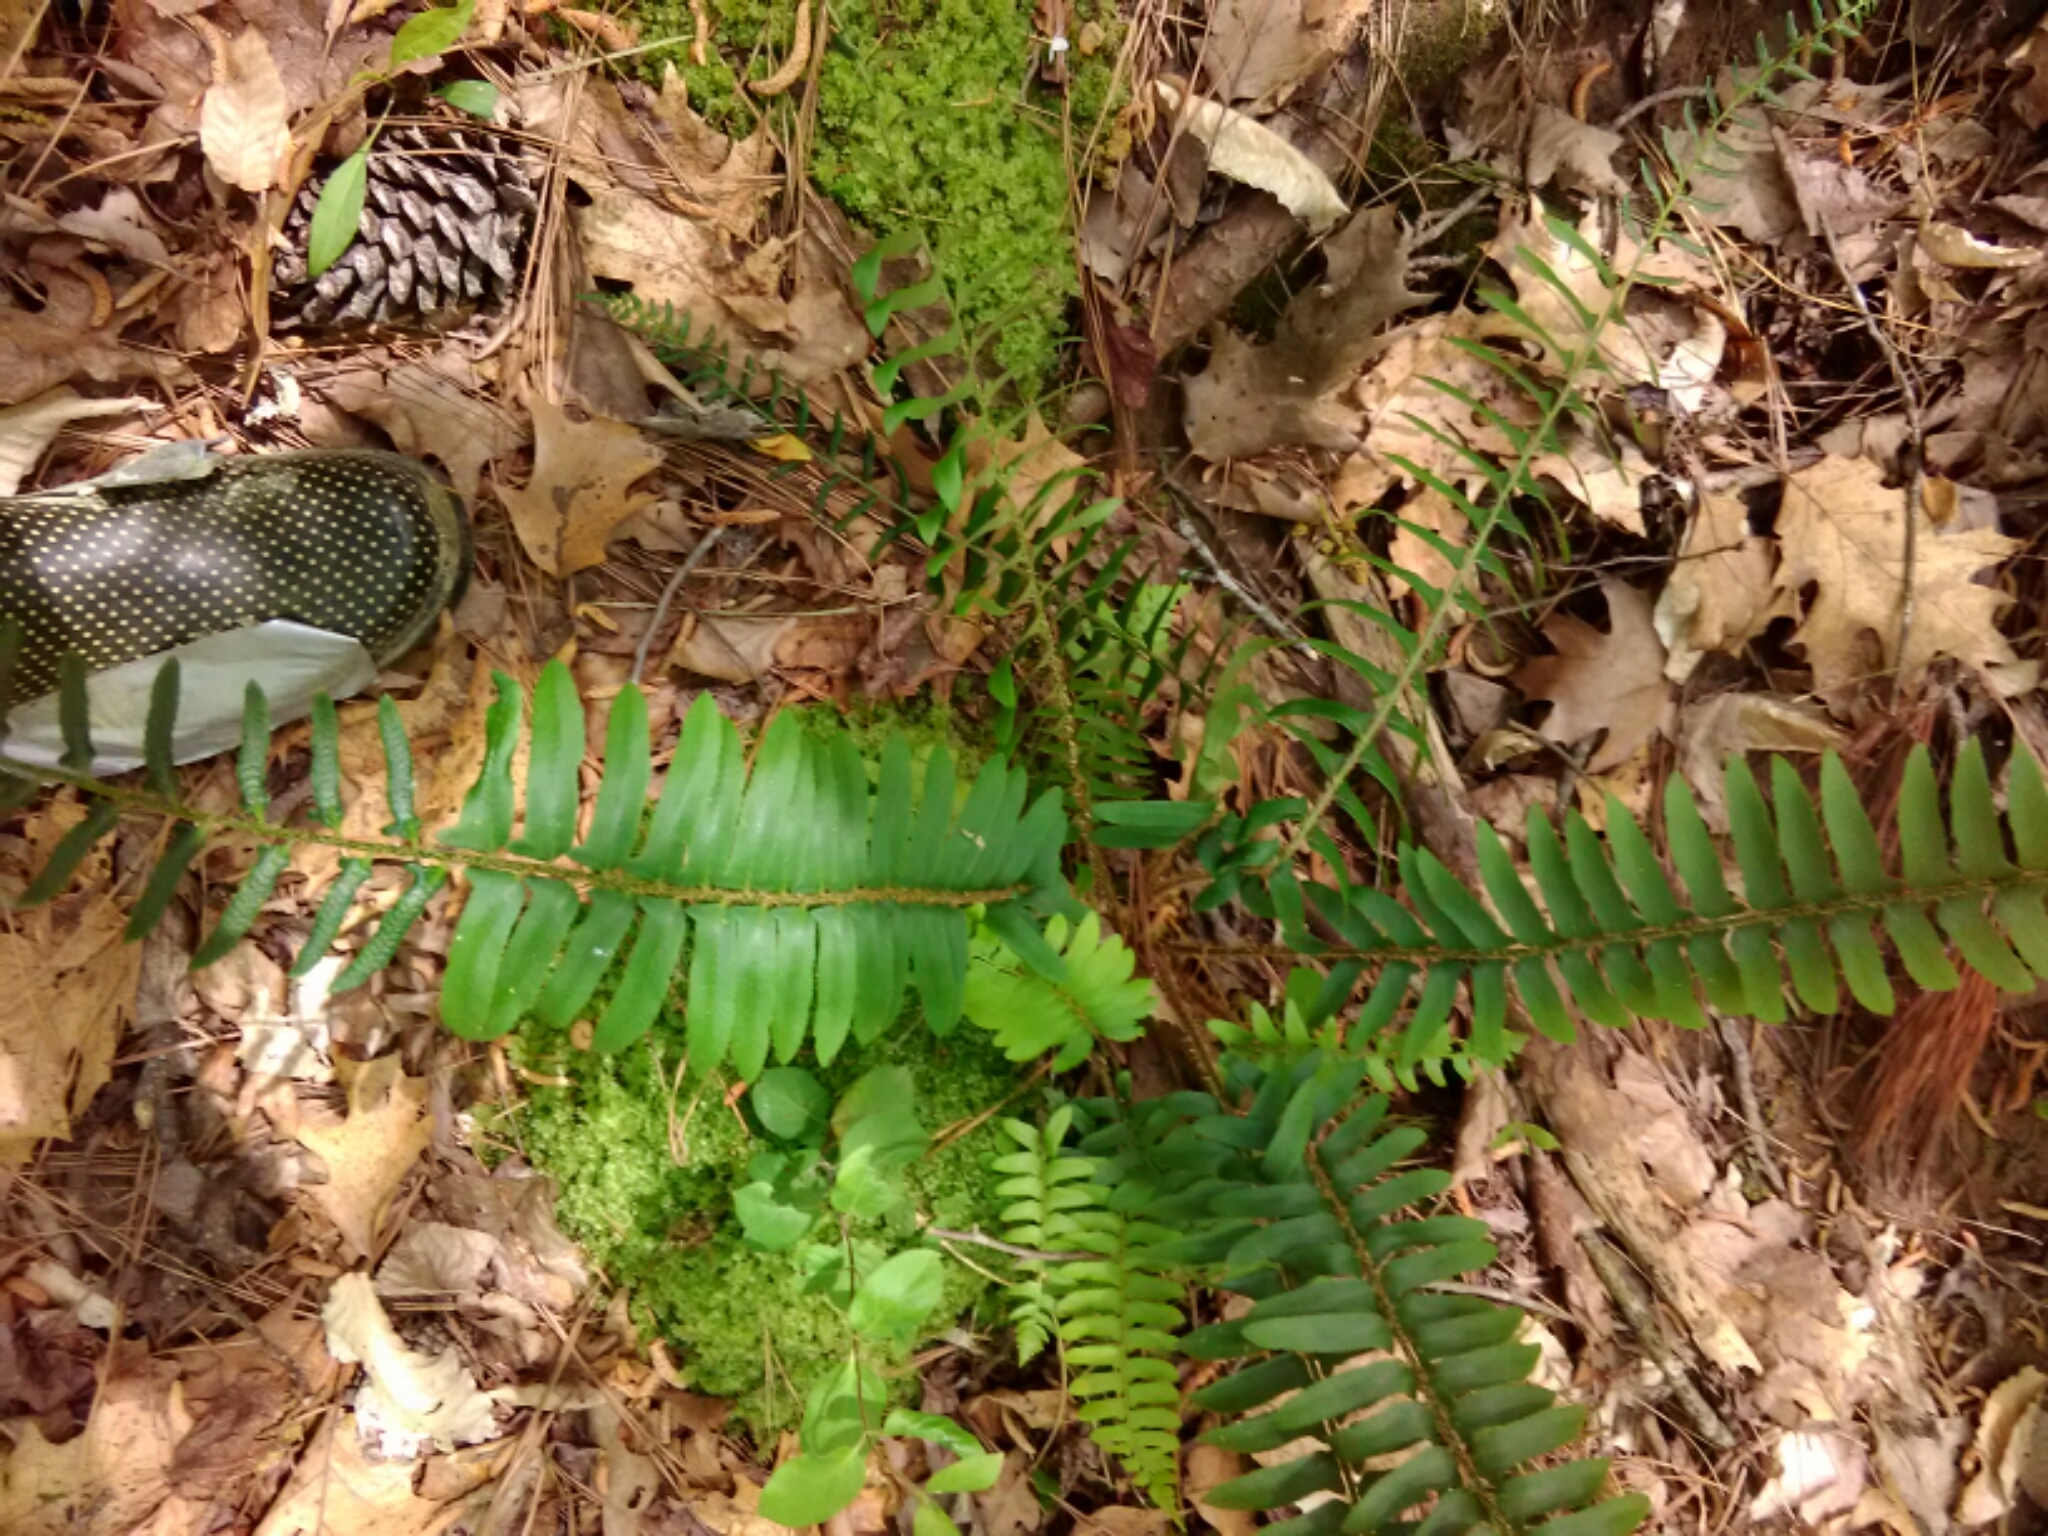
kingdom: Plantae
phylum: Tracheophyta
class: Polypodiopsida
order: Polypodiales
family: Dryopteridaceae
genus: Polystichum
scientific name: Polystichum acrostichoides
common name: Christmas fern
